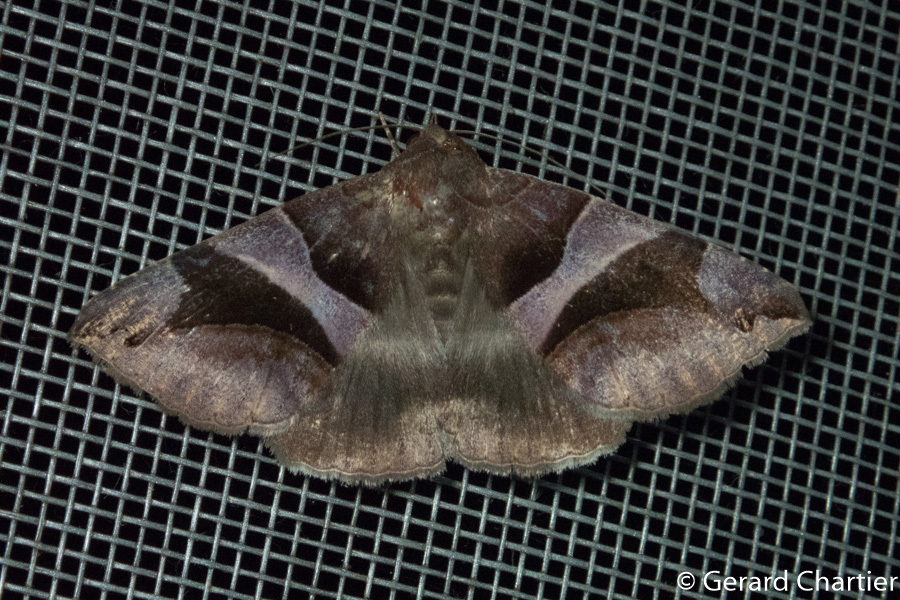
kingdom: Animalia
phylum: Arthropoda
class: Insecta
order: Lepidoptera
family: Erebidae
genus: Bastilla
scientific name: Bastilla arcuata
